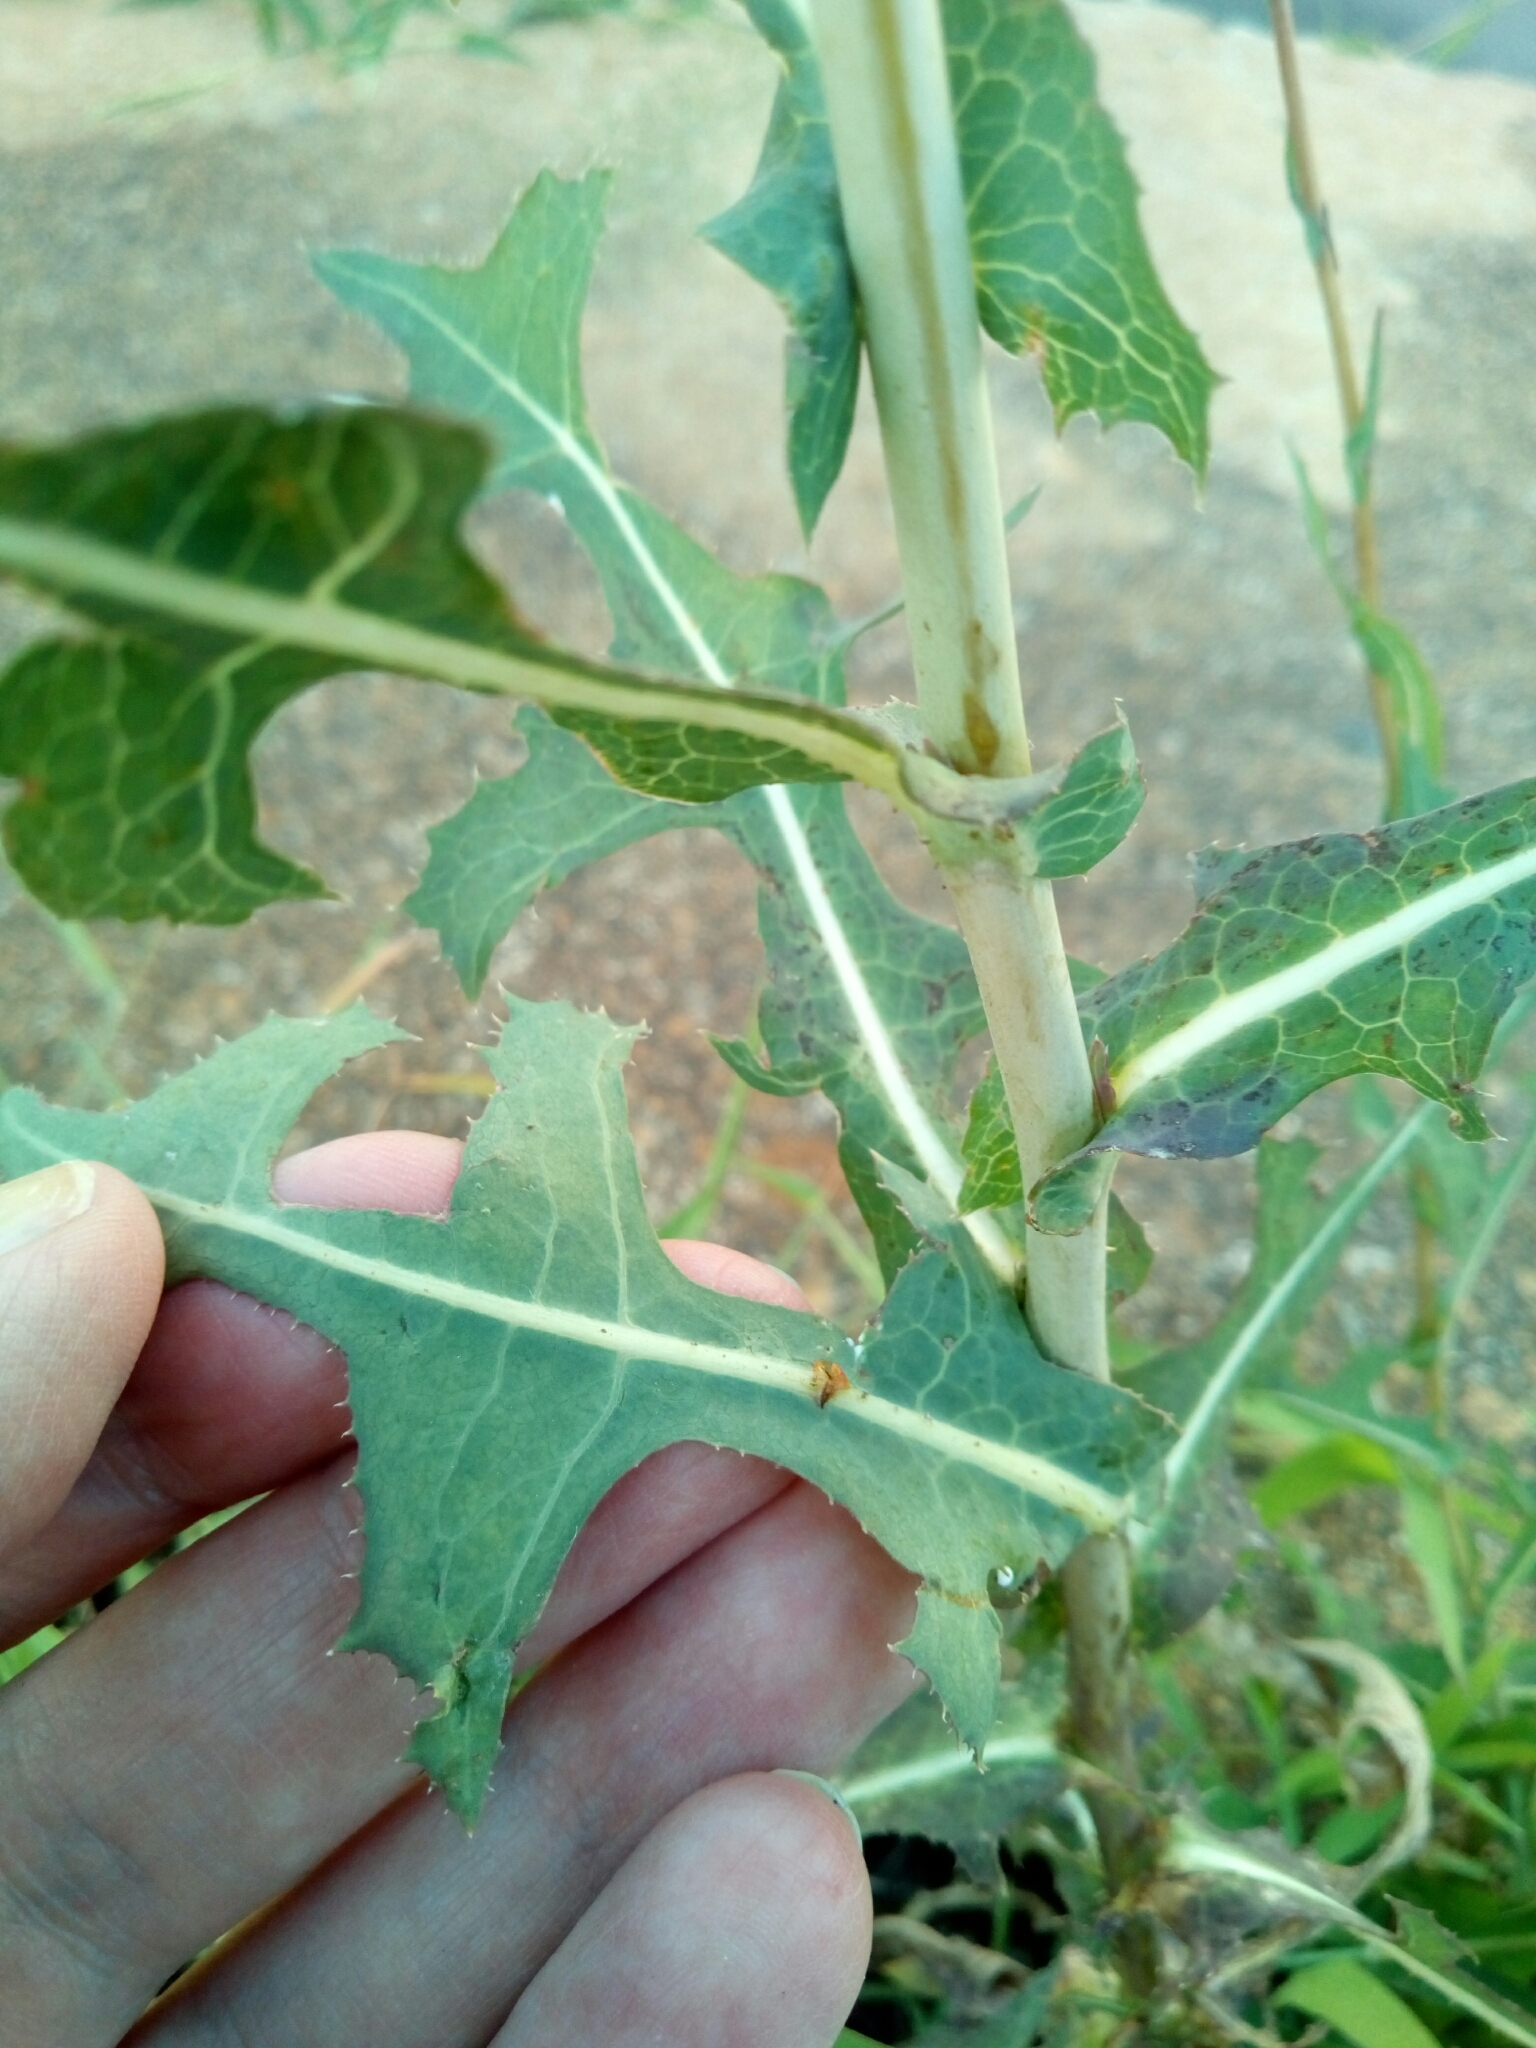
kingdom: Plantae
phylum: Tracheophyta
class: Magnoliopsida
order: Asterales
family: Asteraceae
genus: Lactuca
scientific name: Lactuca serriola
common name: Prickly lettuce
